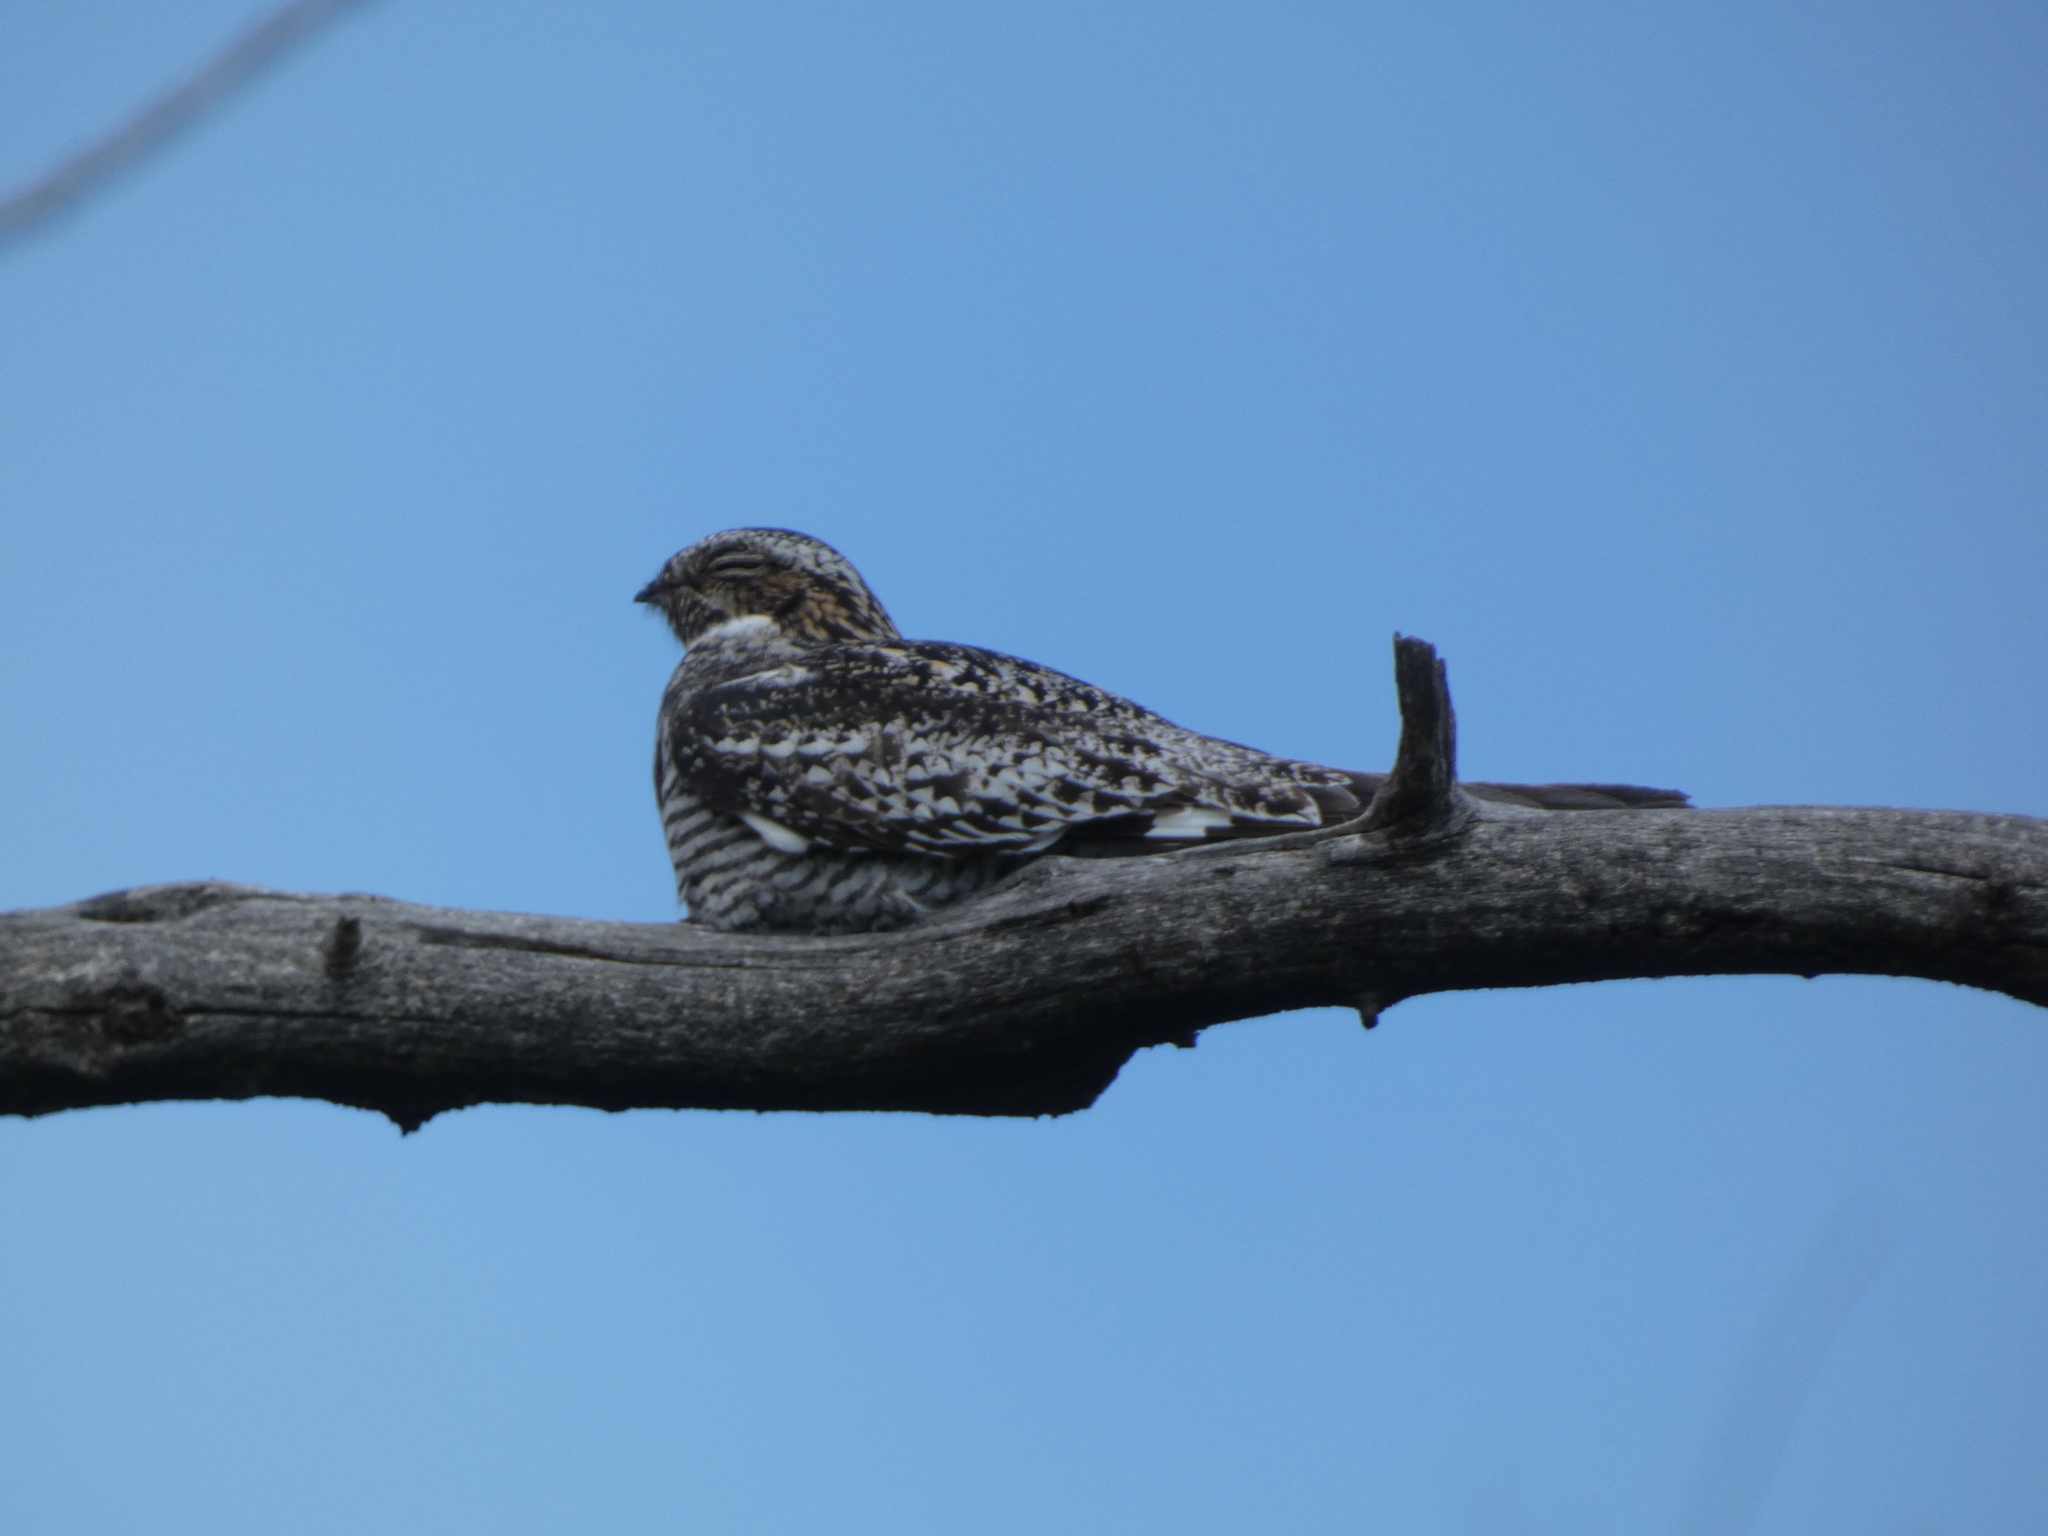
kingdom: Animalia
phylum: Chordata
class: Aves
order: Caprimulgiformes
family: Caprimulgidae
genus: Chordeiles
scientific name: Chordeiles minor
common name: Common nighthawk
